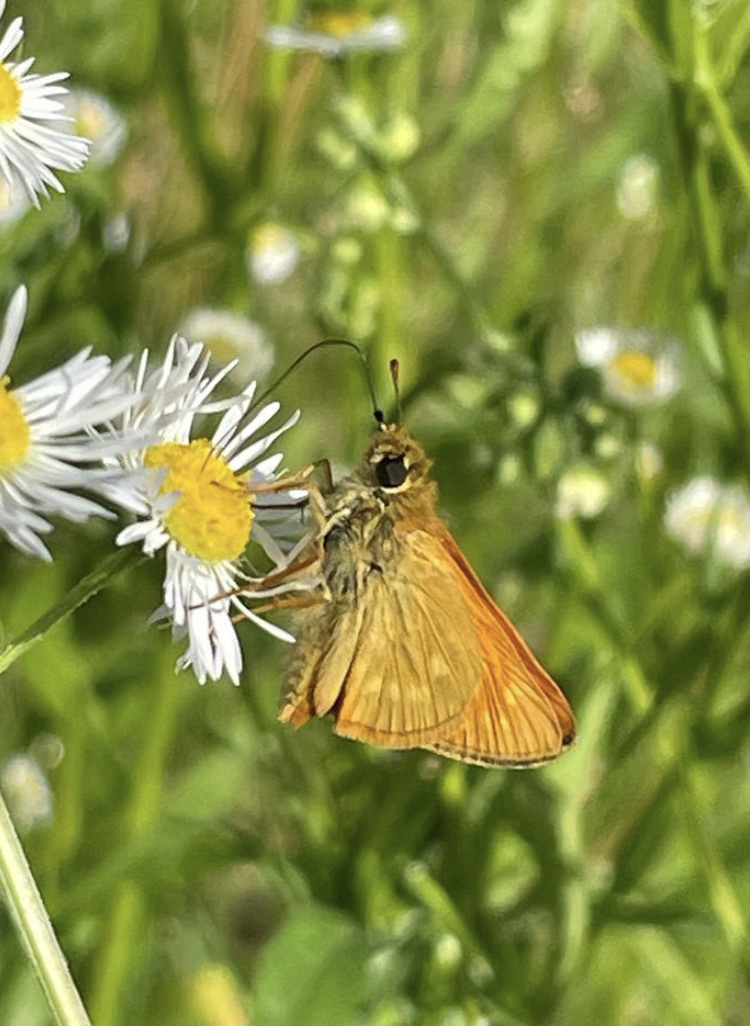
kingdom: Animalia
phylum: Arthropoda
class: Insecta
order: Lepidoptera
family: Hesperiidae
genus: Ochlodes
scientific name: Ochlodes venata
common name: Large skipper
